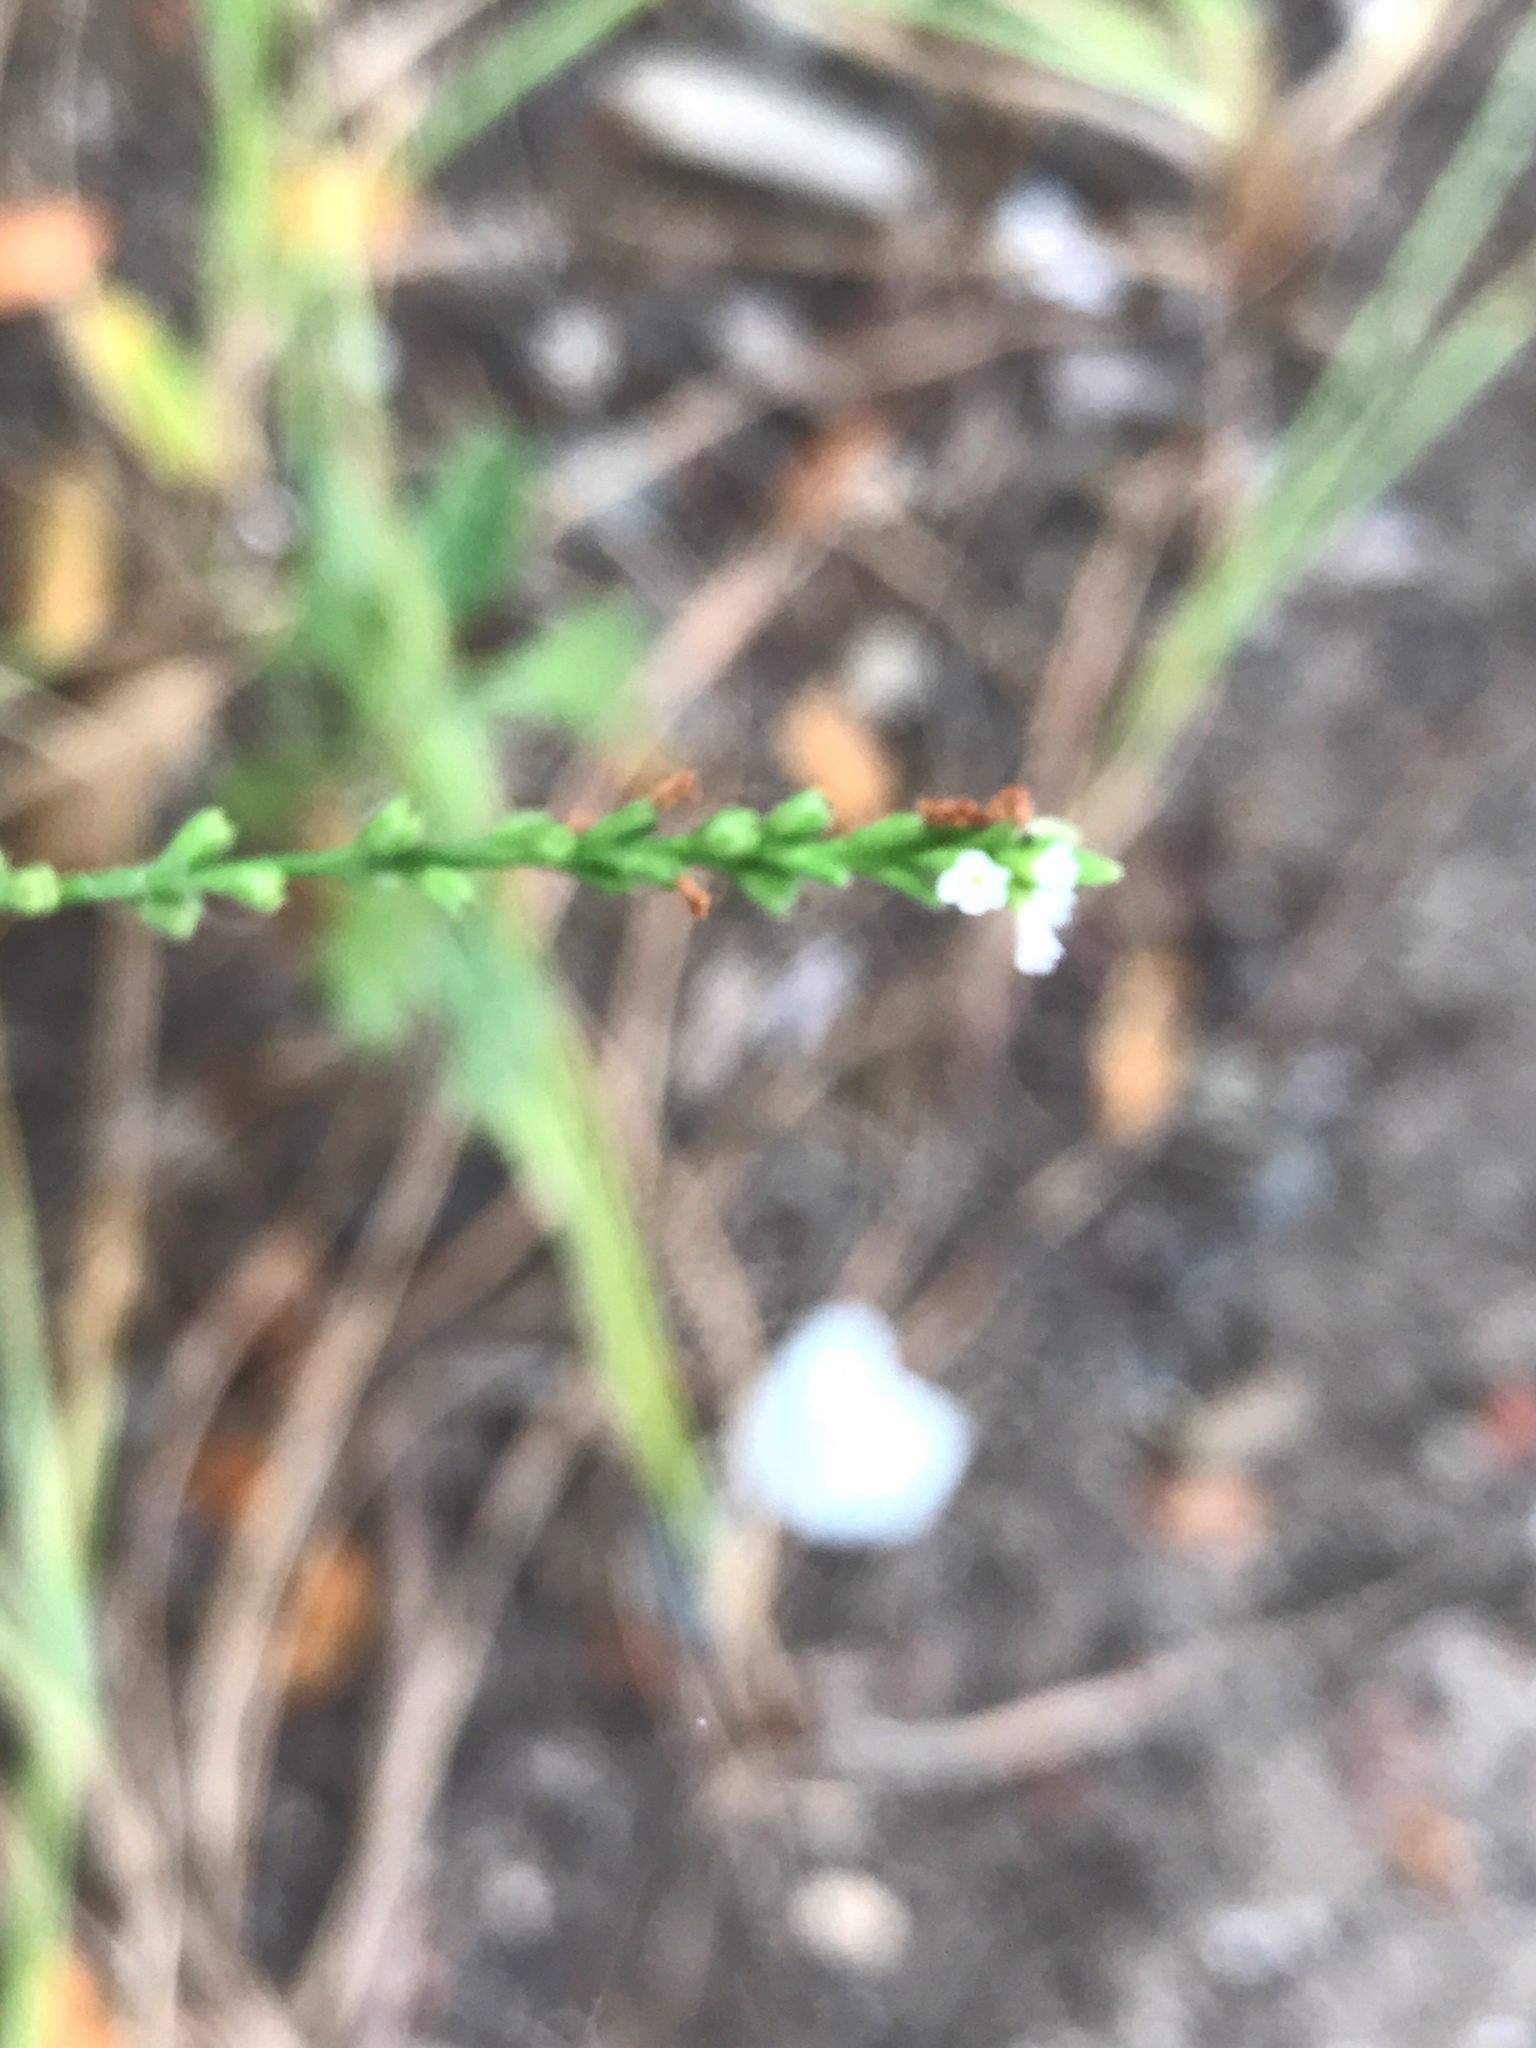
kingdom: Plantae
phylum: Tracheophyta
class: Magnoliopsida
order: Lamiales
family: Verbenaceae
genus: Verbena
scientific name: Verbena urticifolia
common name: Nettle-leaved vervain
